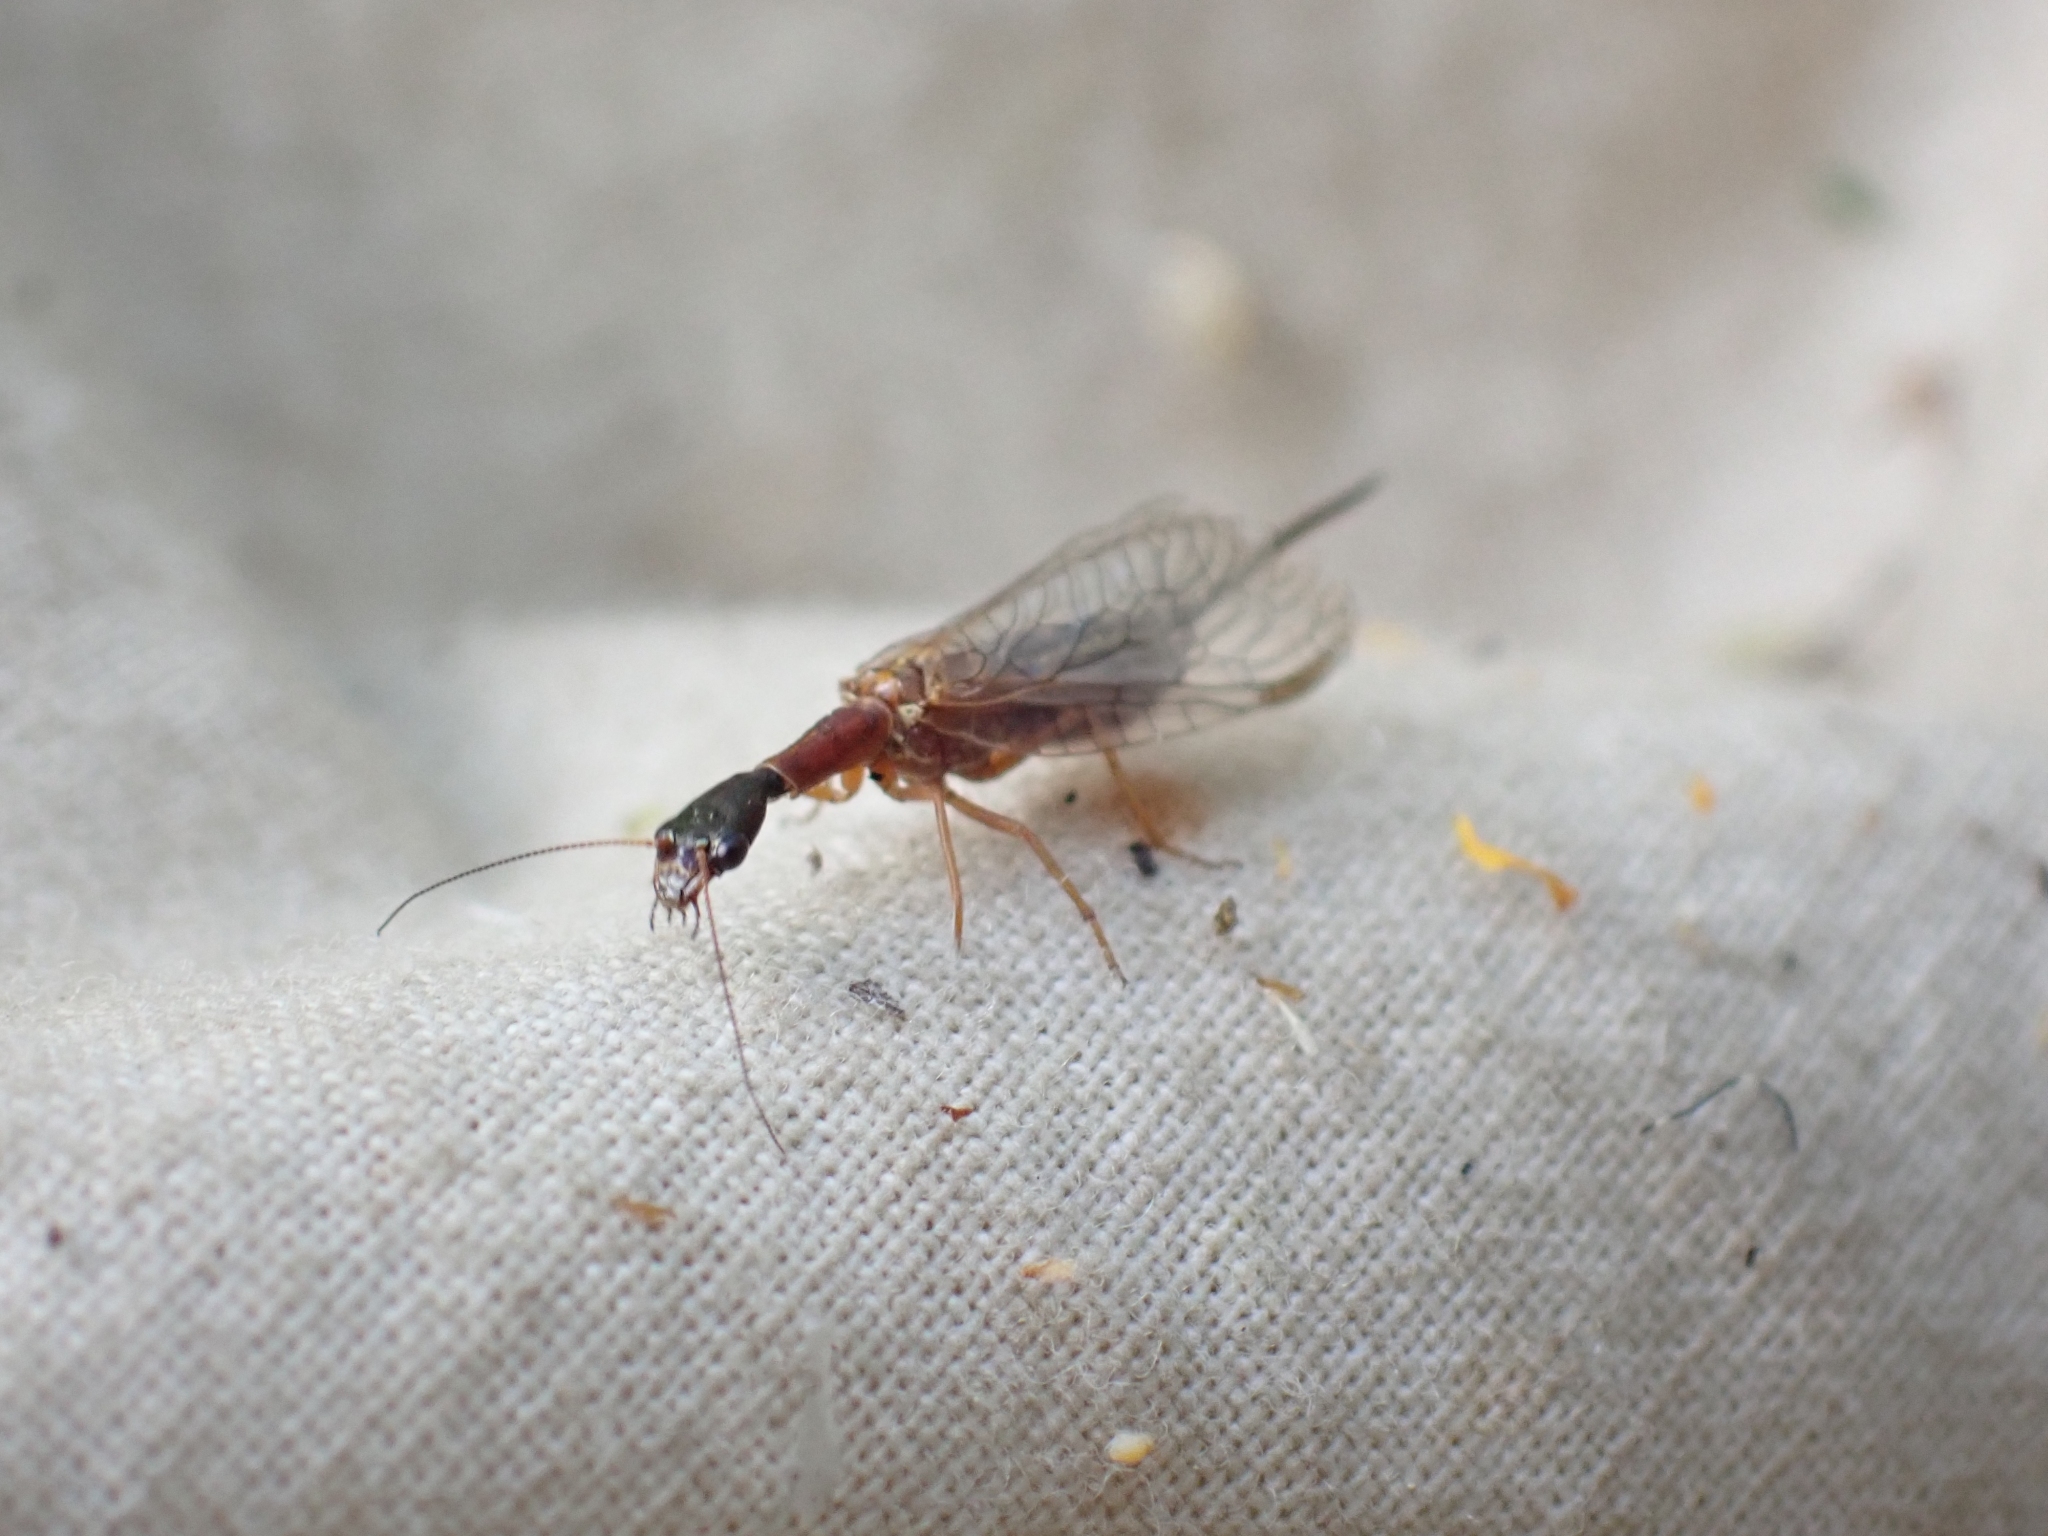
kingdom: Animalia
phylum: Arthropoda
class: Insecta
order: Raphidioptera
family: Raphidiidae
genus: Agulla
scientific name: Agulla unicolor
